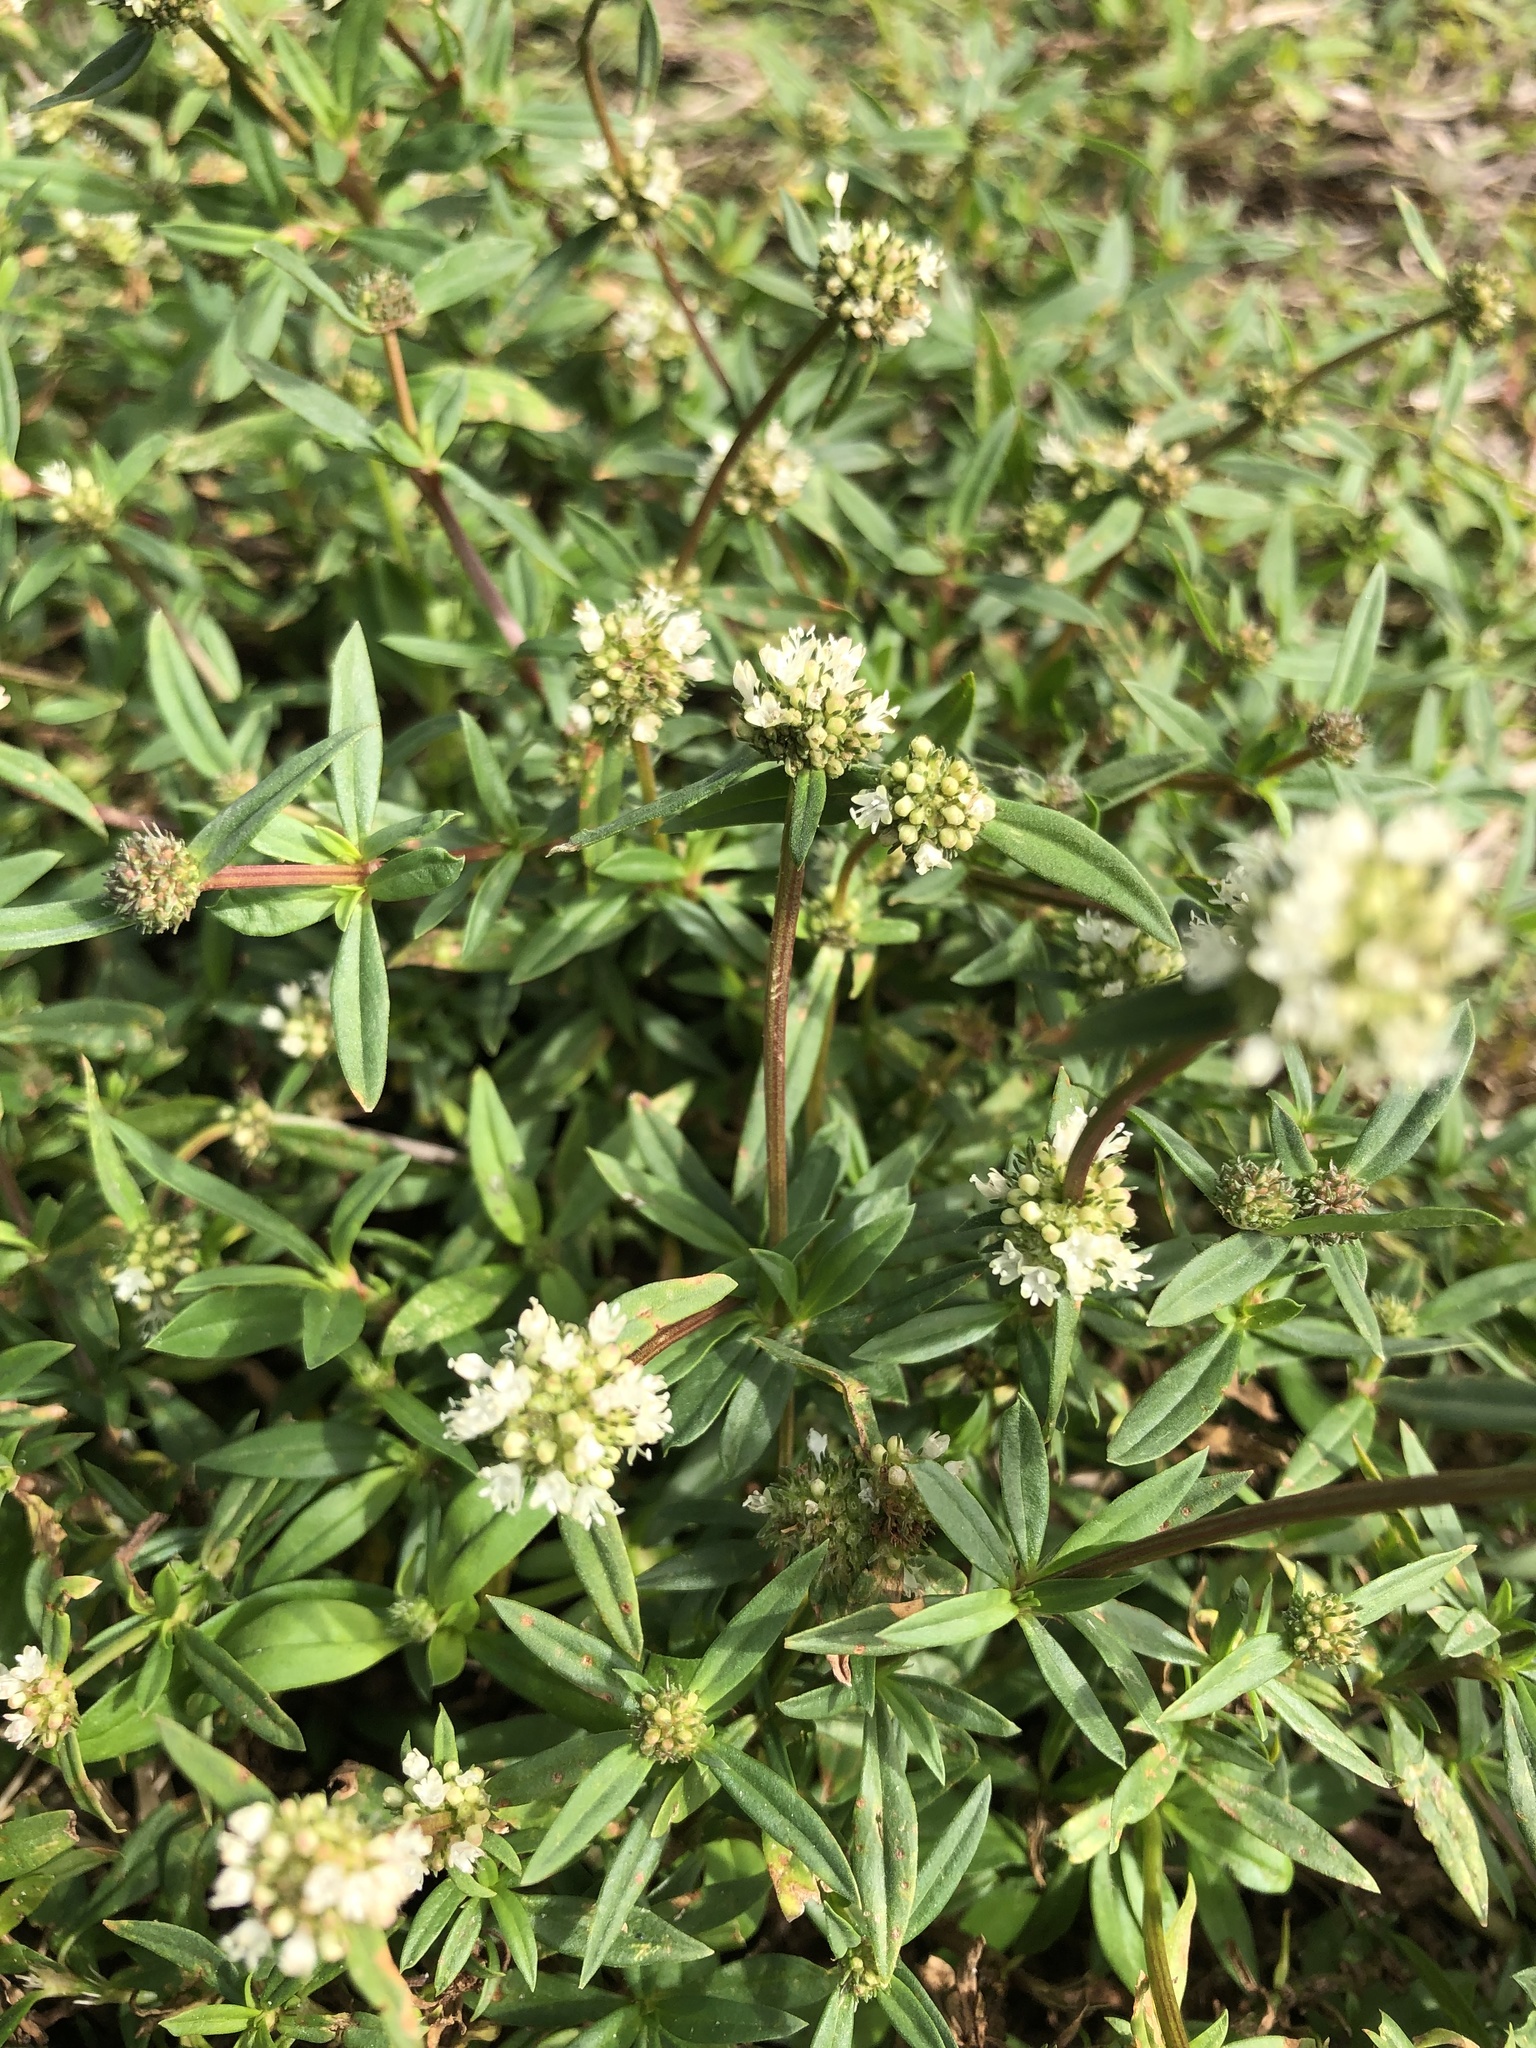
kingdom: Plantae
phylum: Tracheophyta
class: Magnoliopsida
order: Gentianales
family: Rubiaceae
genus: Spermacoce
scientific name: Spermacoce verticillata
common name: Shrubby false buttonweed
